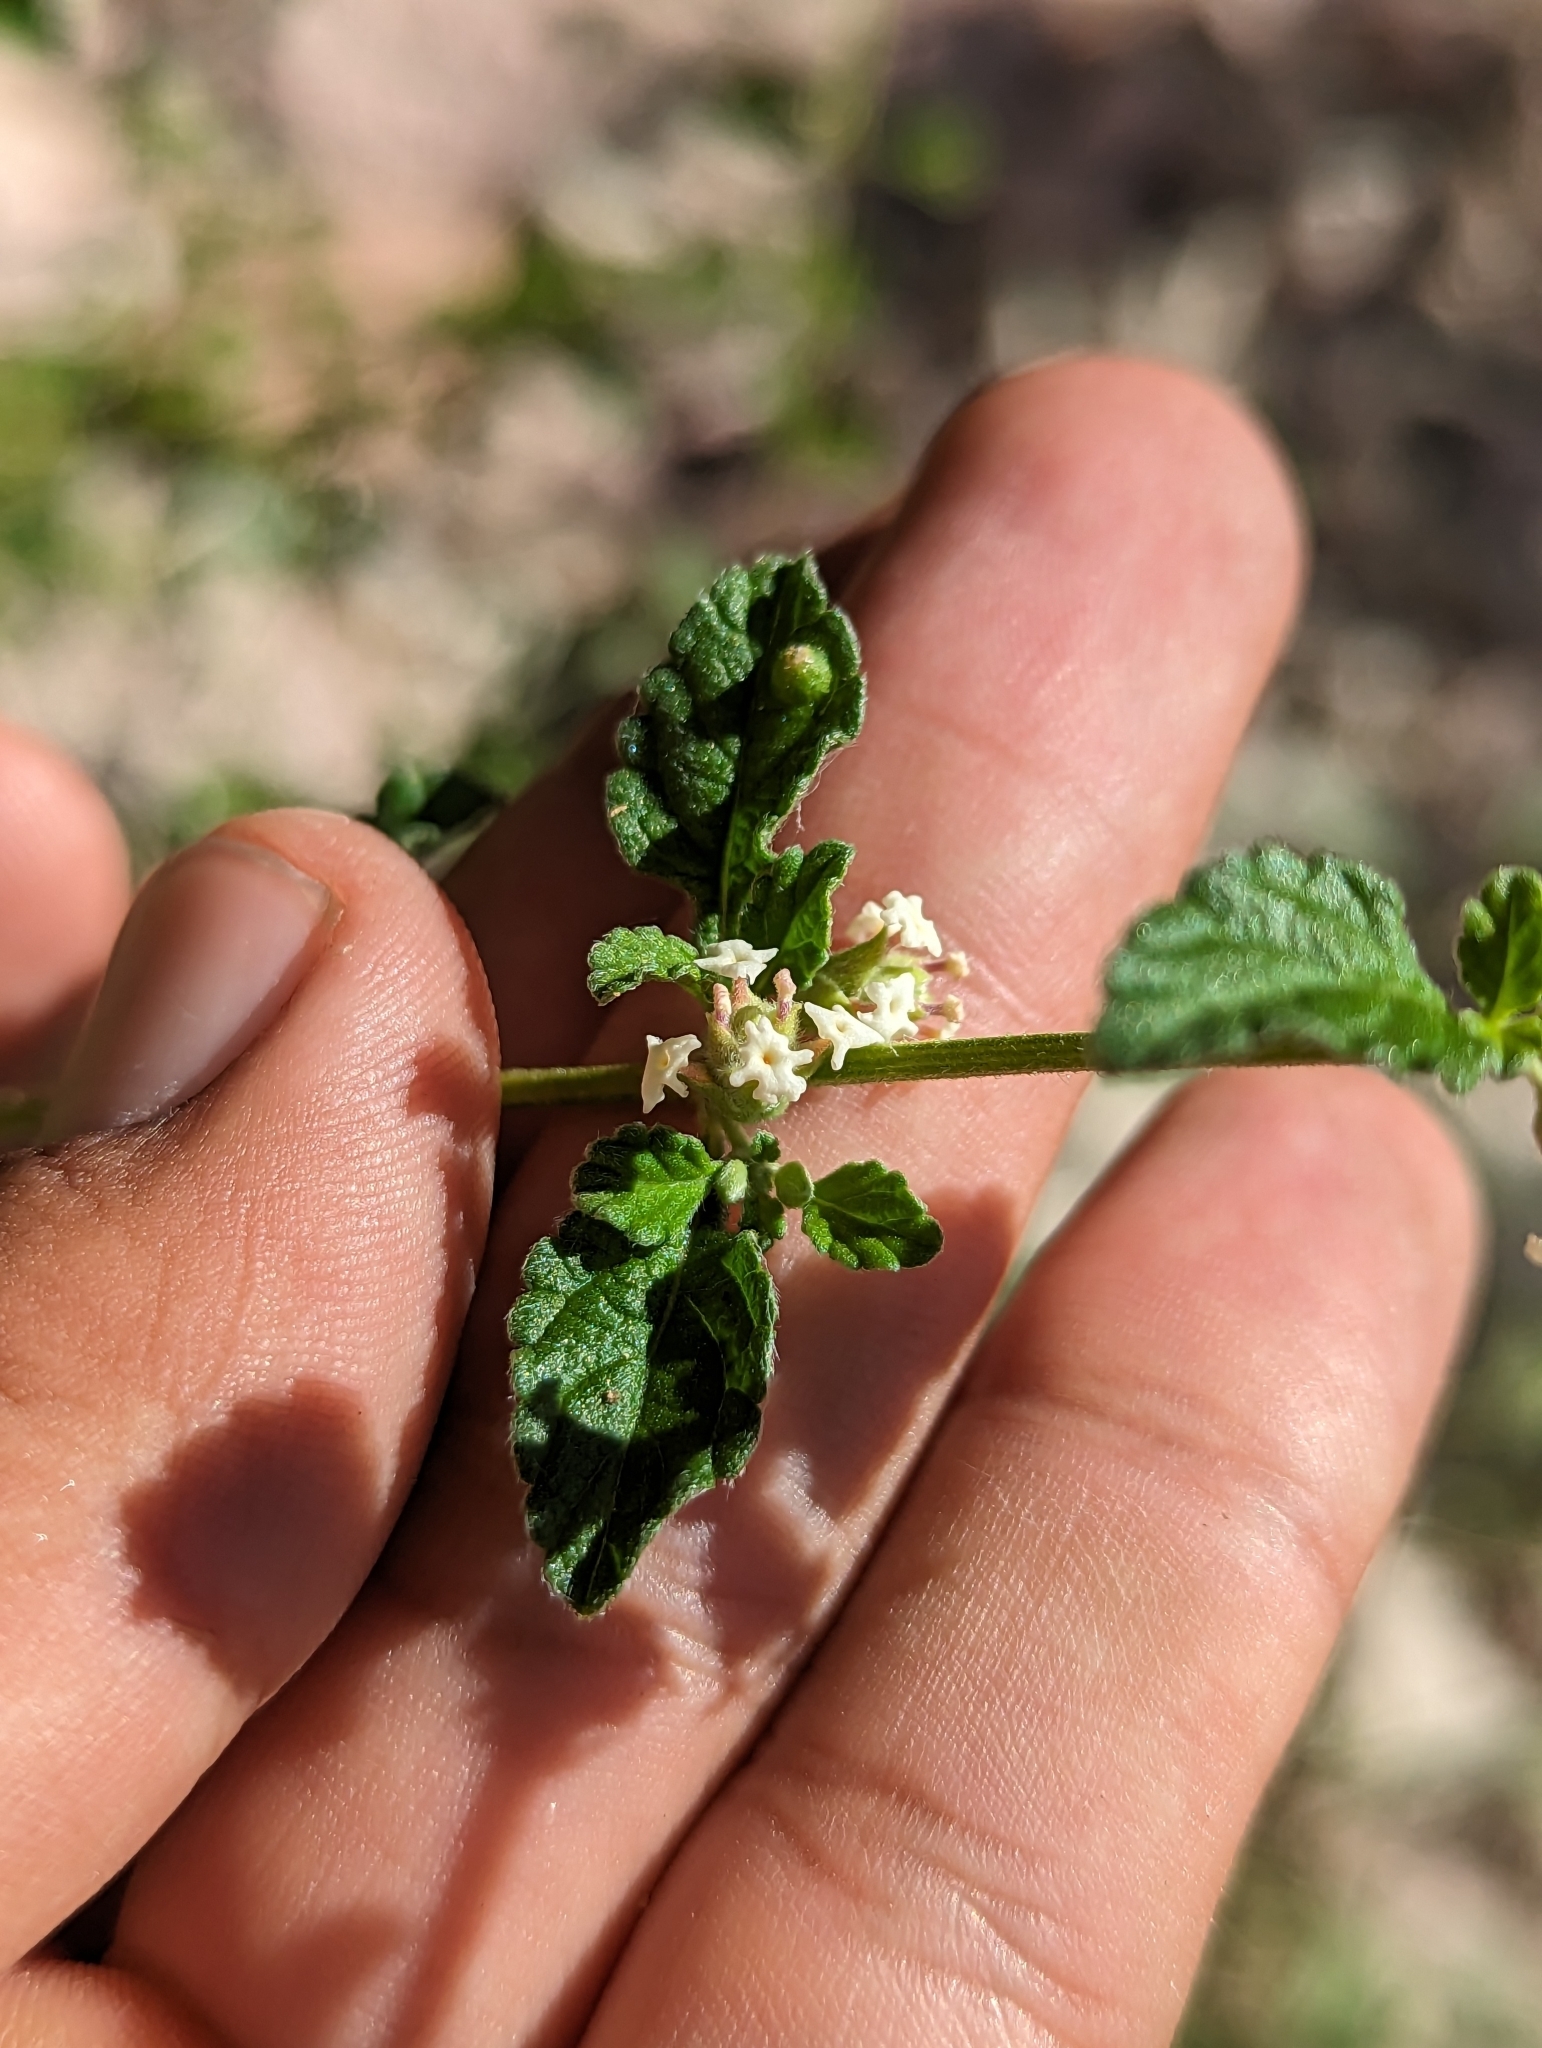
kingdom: Plantae
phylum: Tracheophyta
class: Magnoliopsida
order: Lamiales
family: Verbenaceae
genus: Lippia
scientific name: Lippia origanoides
